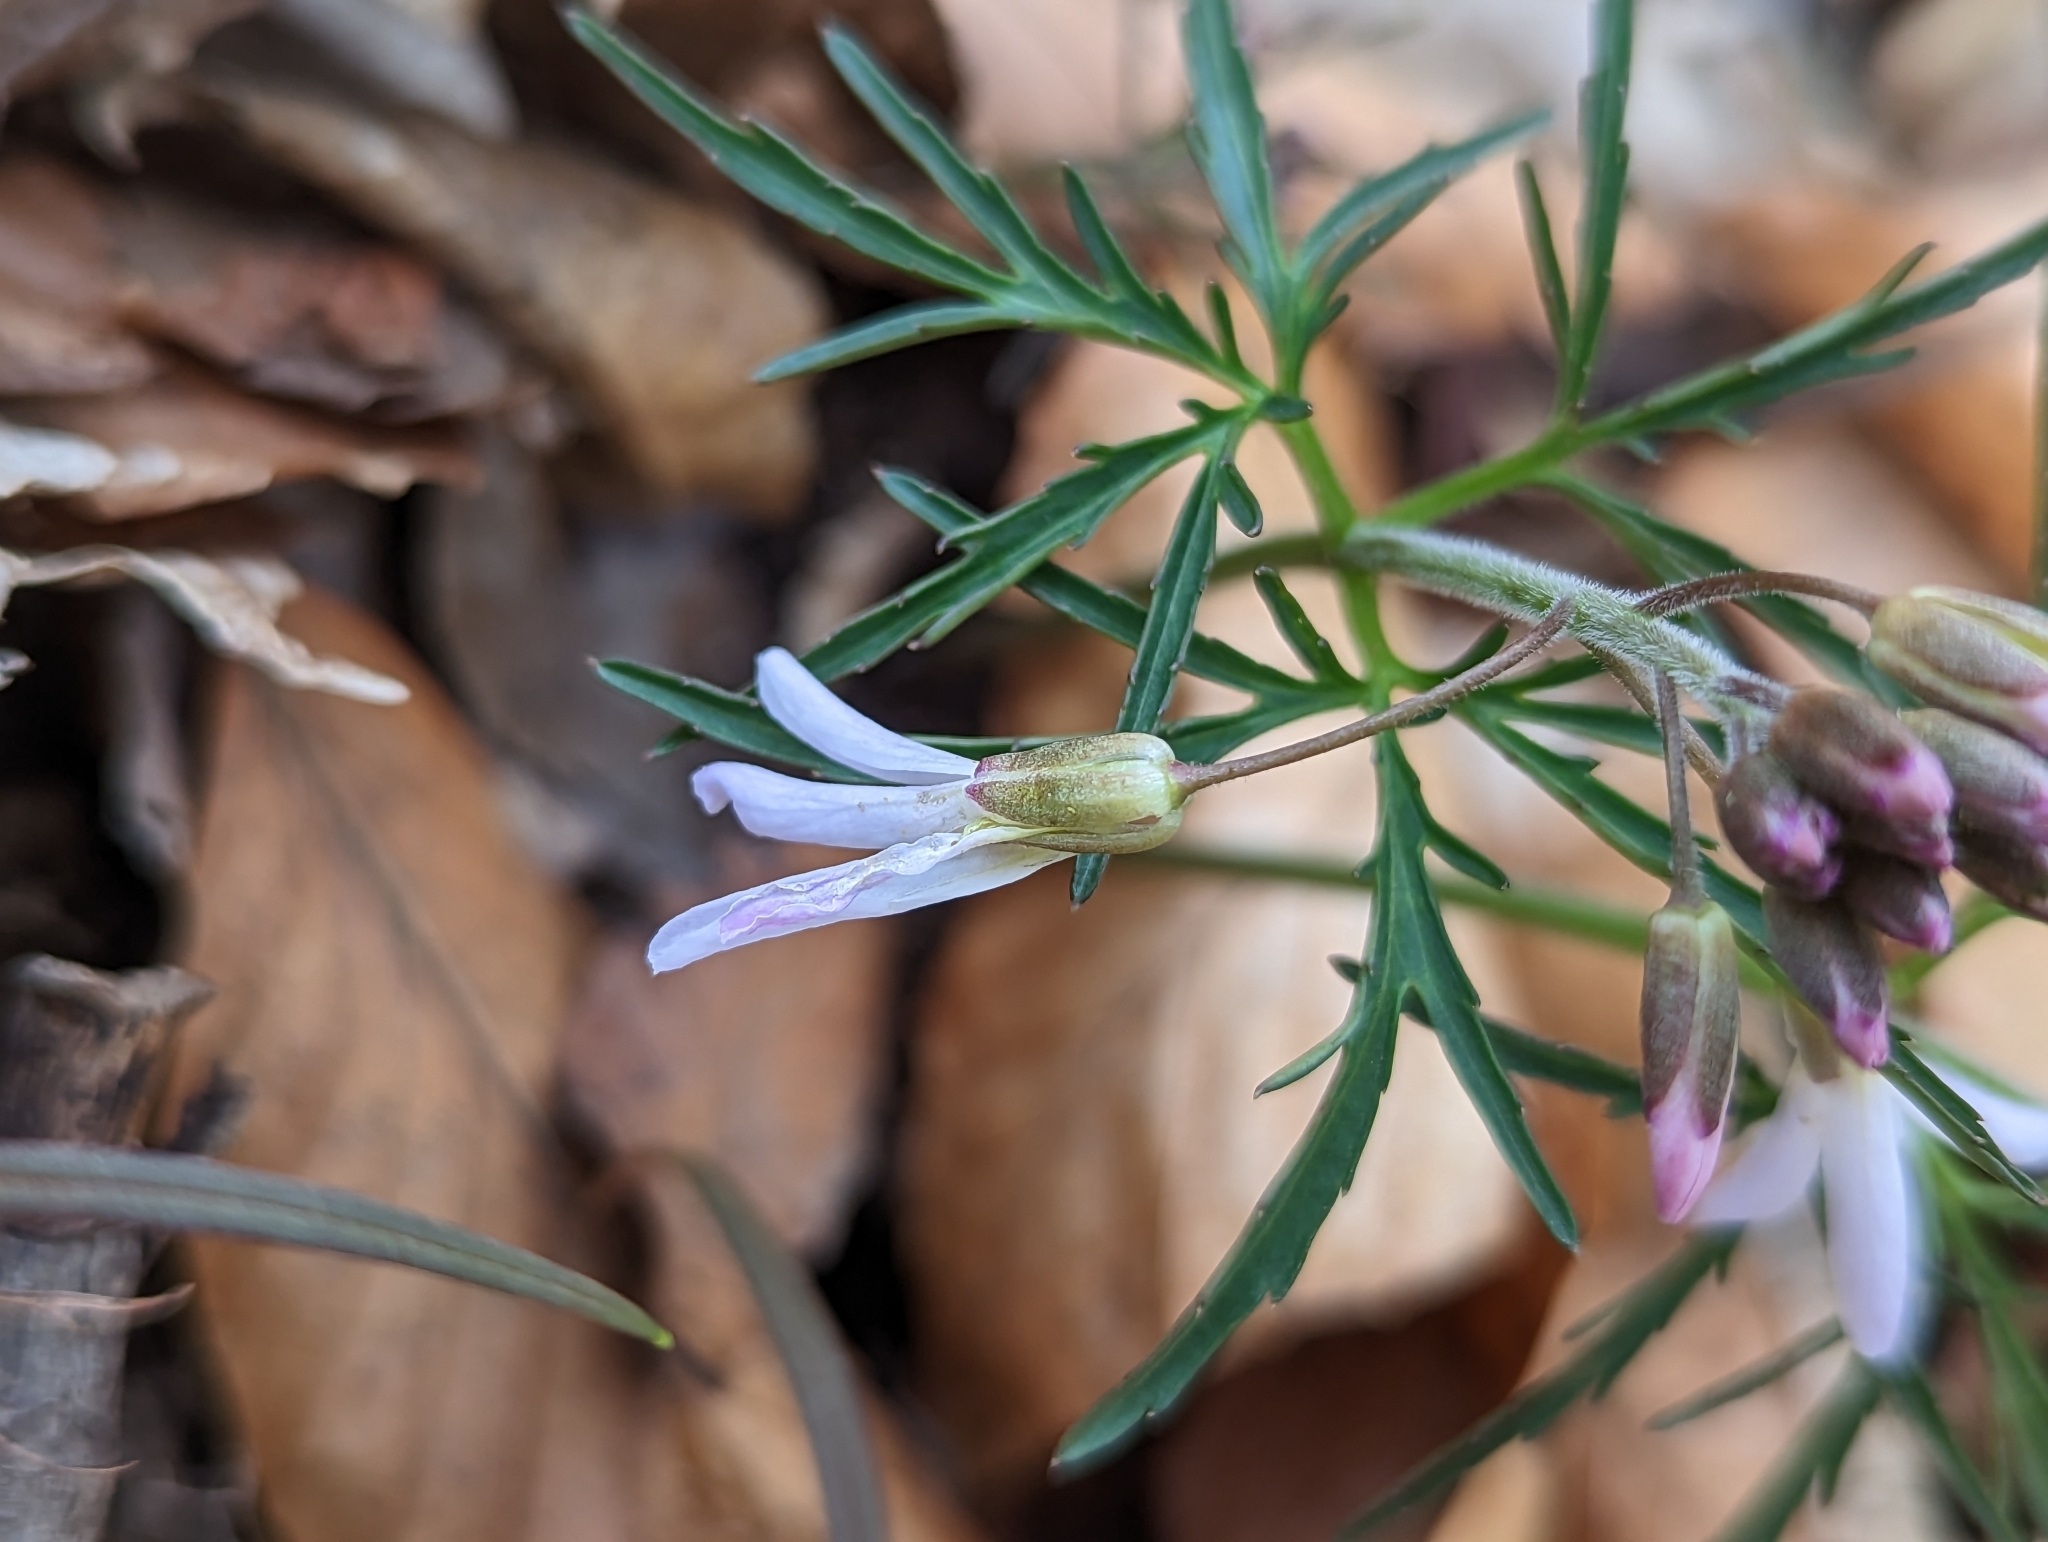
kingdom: Plantae
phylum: Tracheophyta
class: Magnoliopsida
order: Brassicales
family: Brassicaceae
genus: Cardamine
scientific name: Cardamine concatenata
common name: Cut-leaf toothcup
